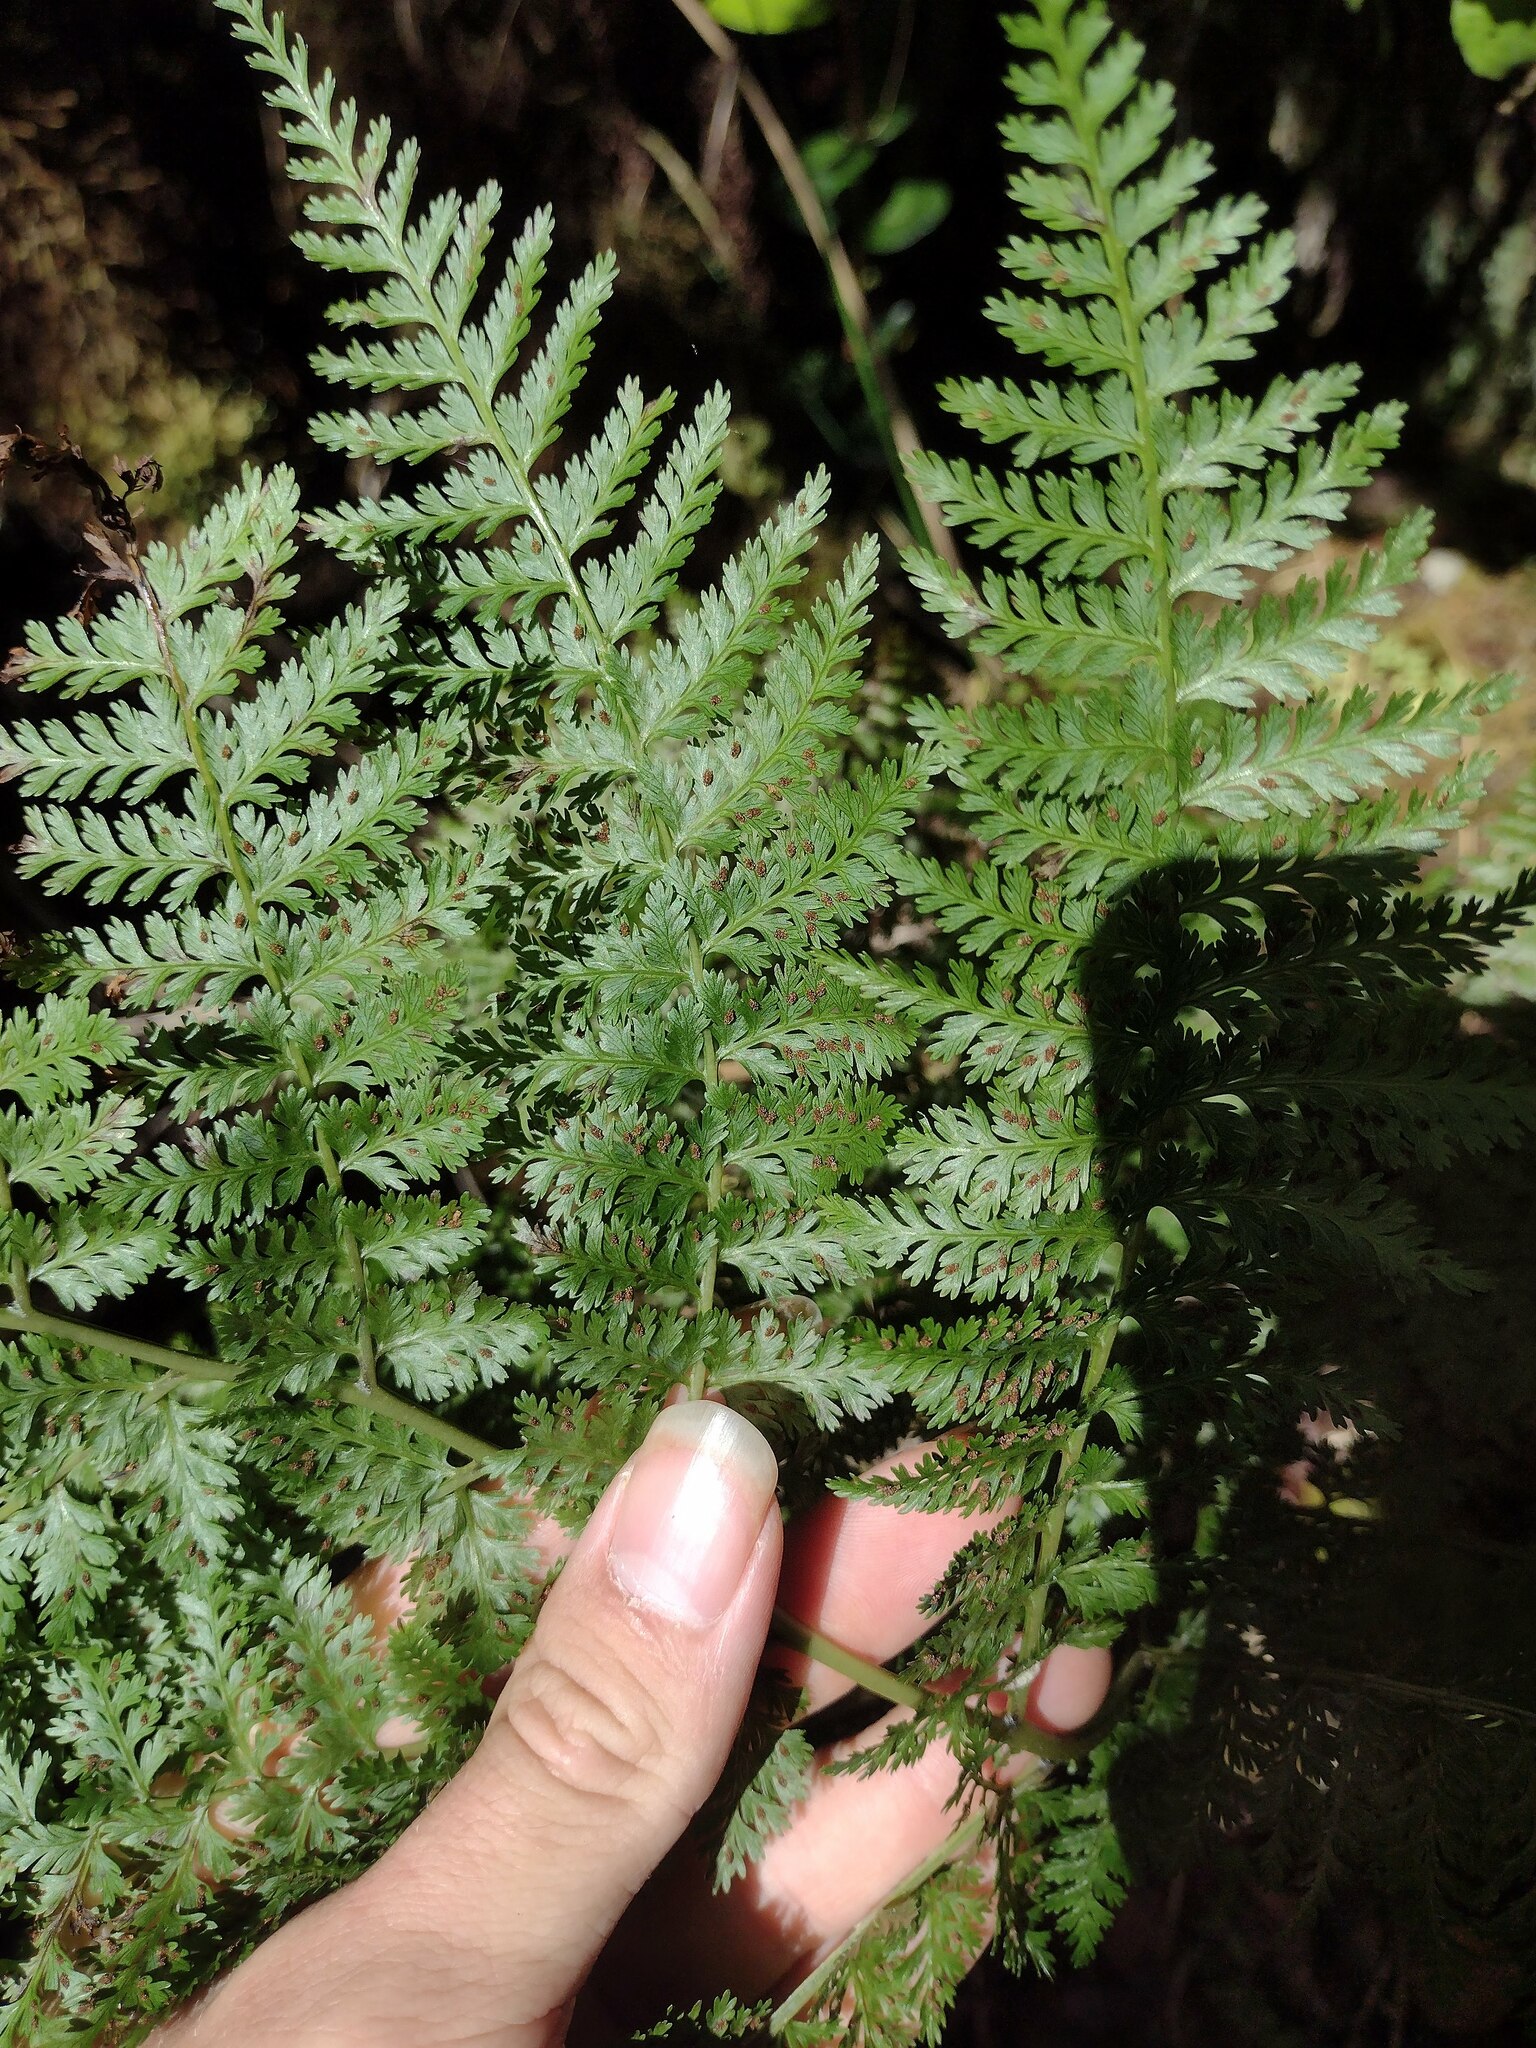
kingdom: Plantae
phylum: Tracheophyta
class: Polypodiopsida
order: Polypodiales
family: Athyriaceae
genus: Athyrium
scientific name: Athyrium microphyllum
